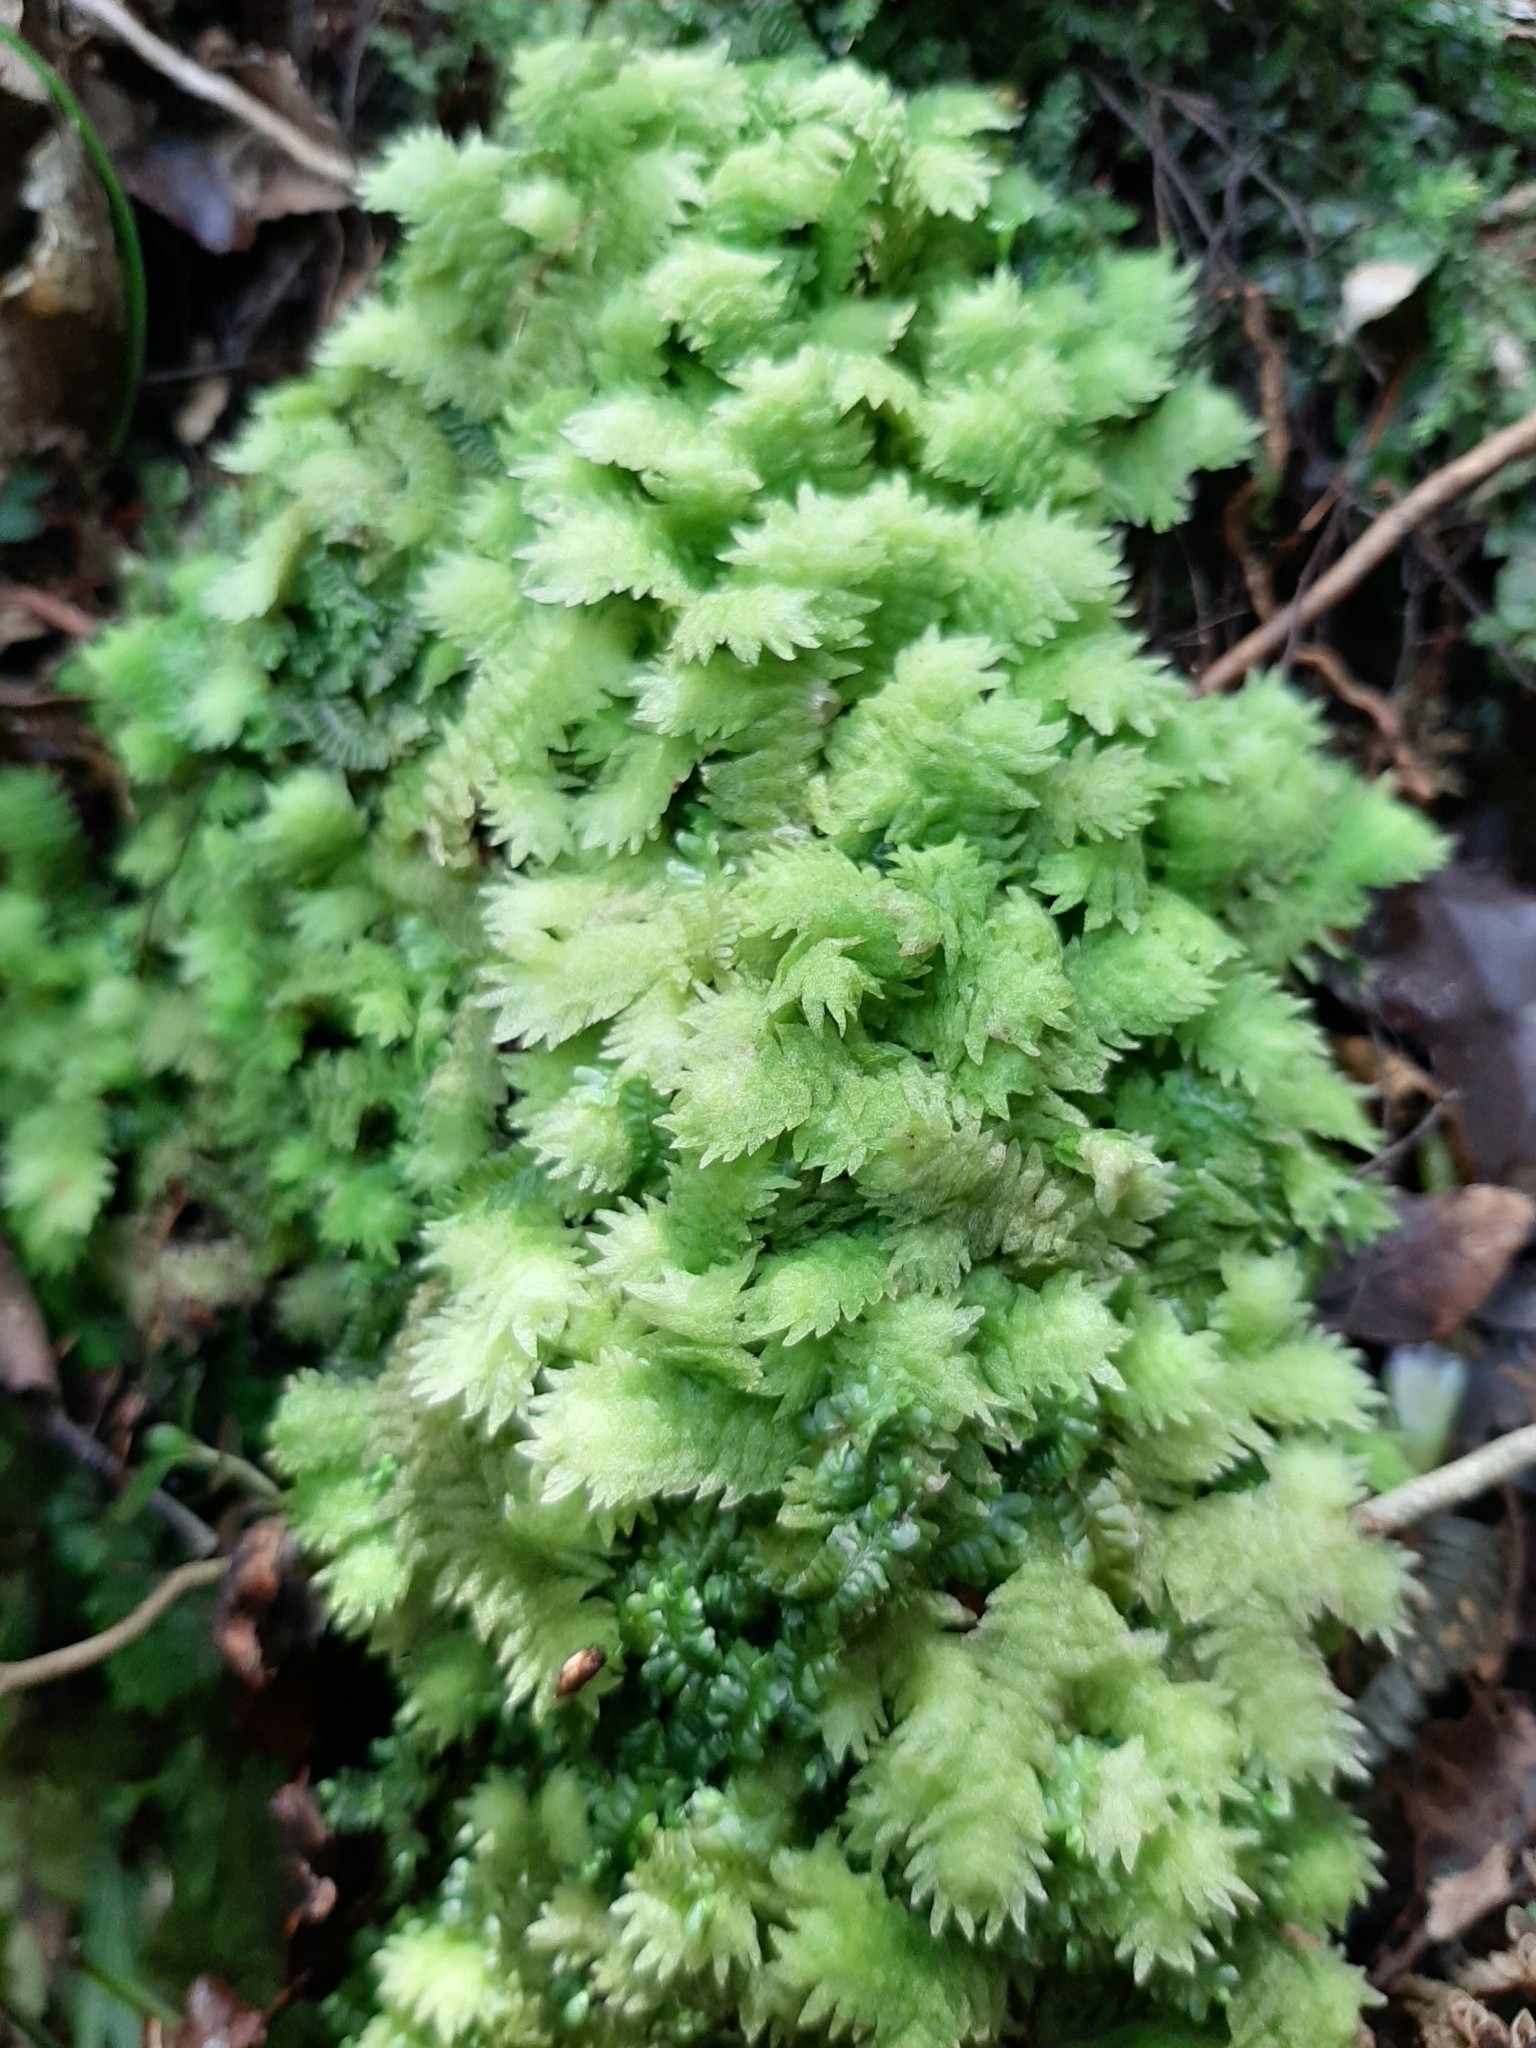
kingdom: Plantae
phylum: Marchantiophyta
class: Jungermanniopsida
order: Jungermanniales
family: Schistochilaceae
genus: Schistochila
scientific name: Schistochila muricata
